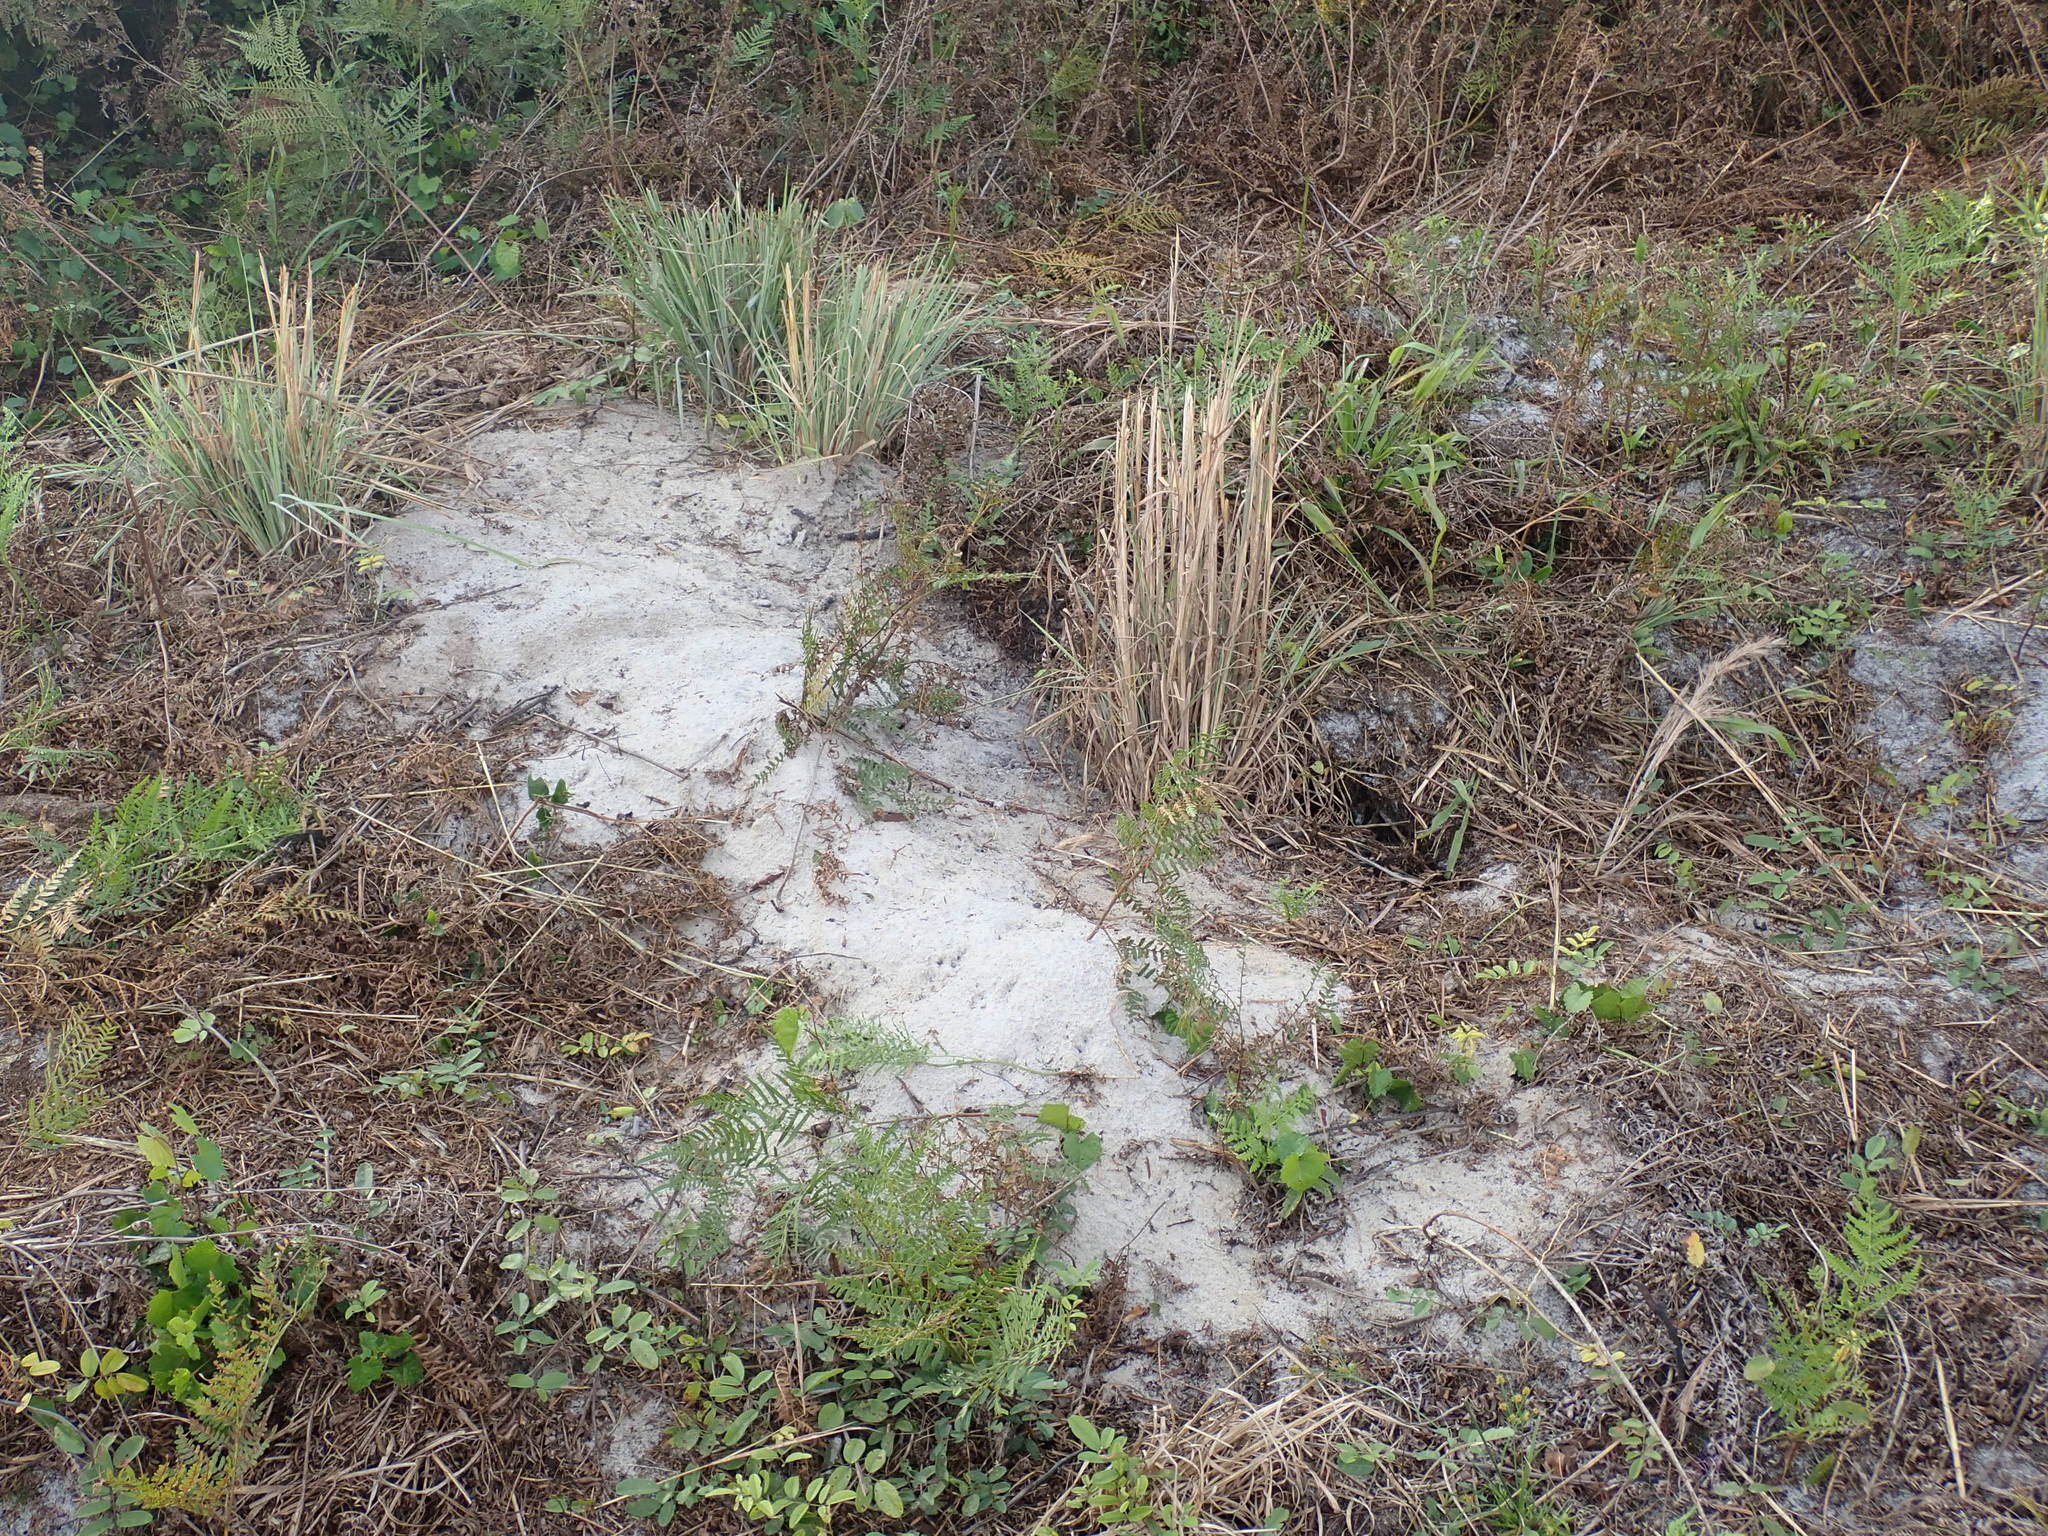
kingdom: Animalia
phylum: Chordata
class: Testudines
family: Testudinidae
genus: Gopherus
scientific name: Gopherus polyphemus
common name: Florida gopher tortoise
